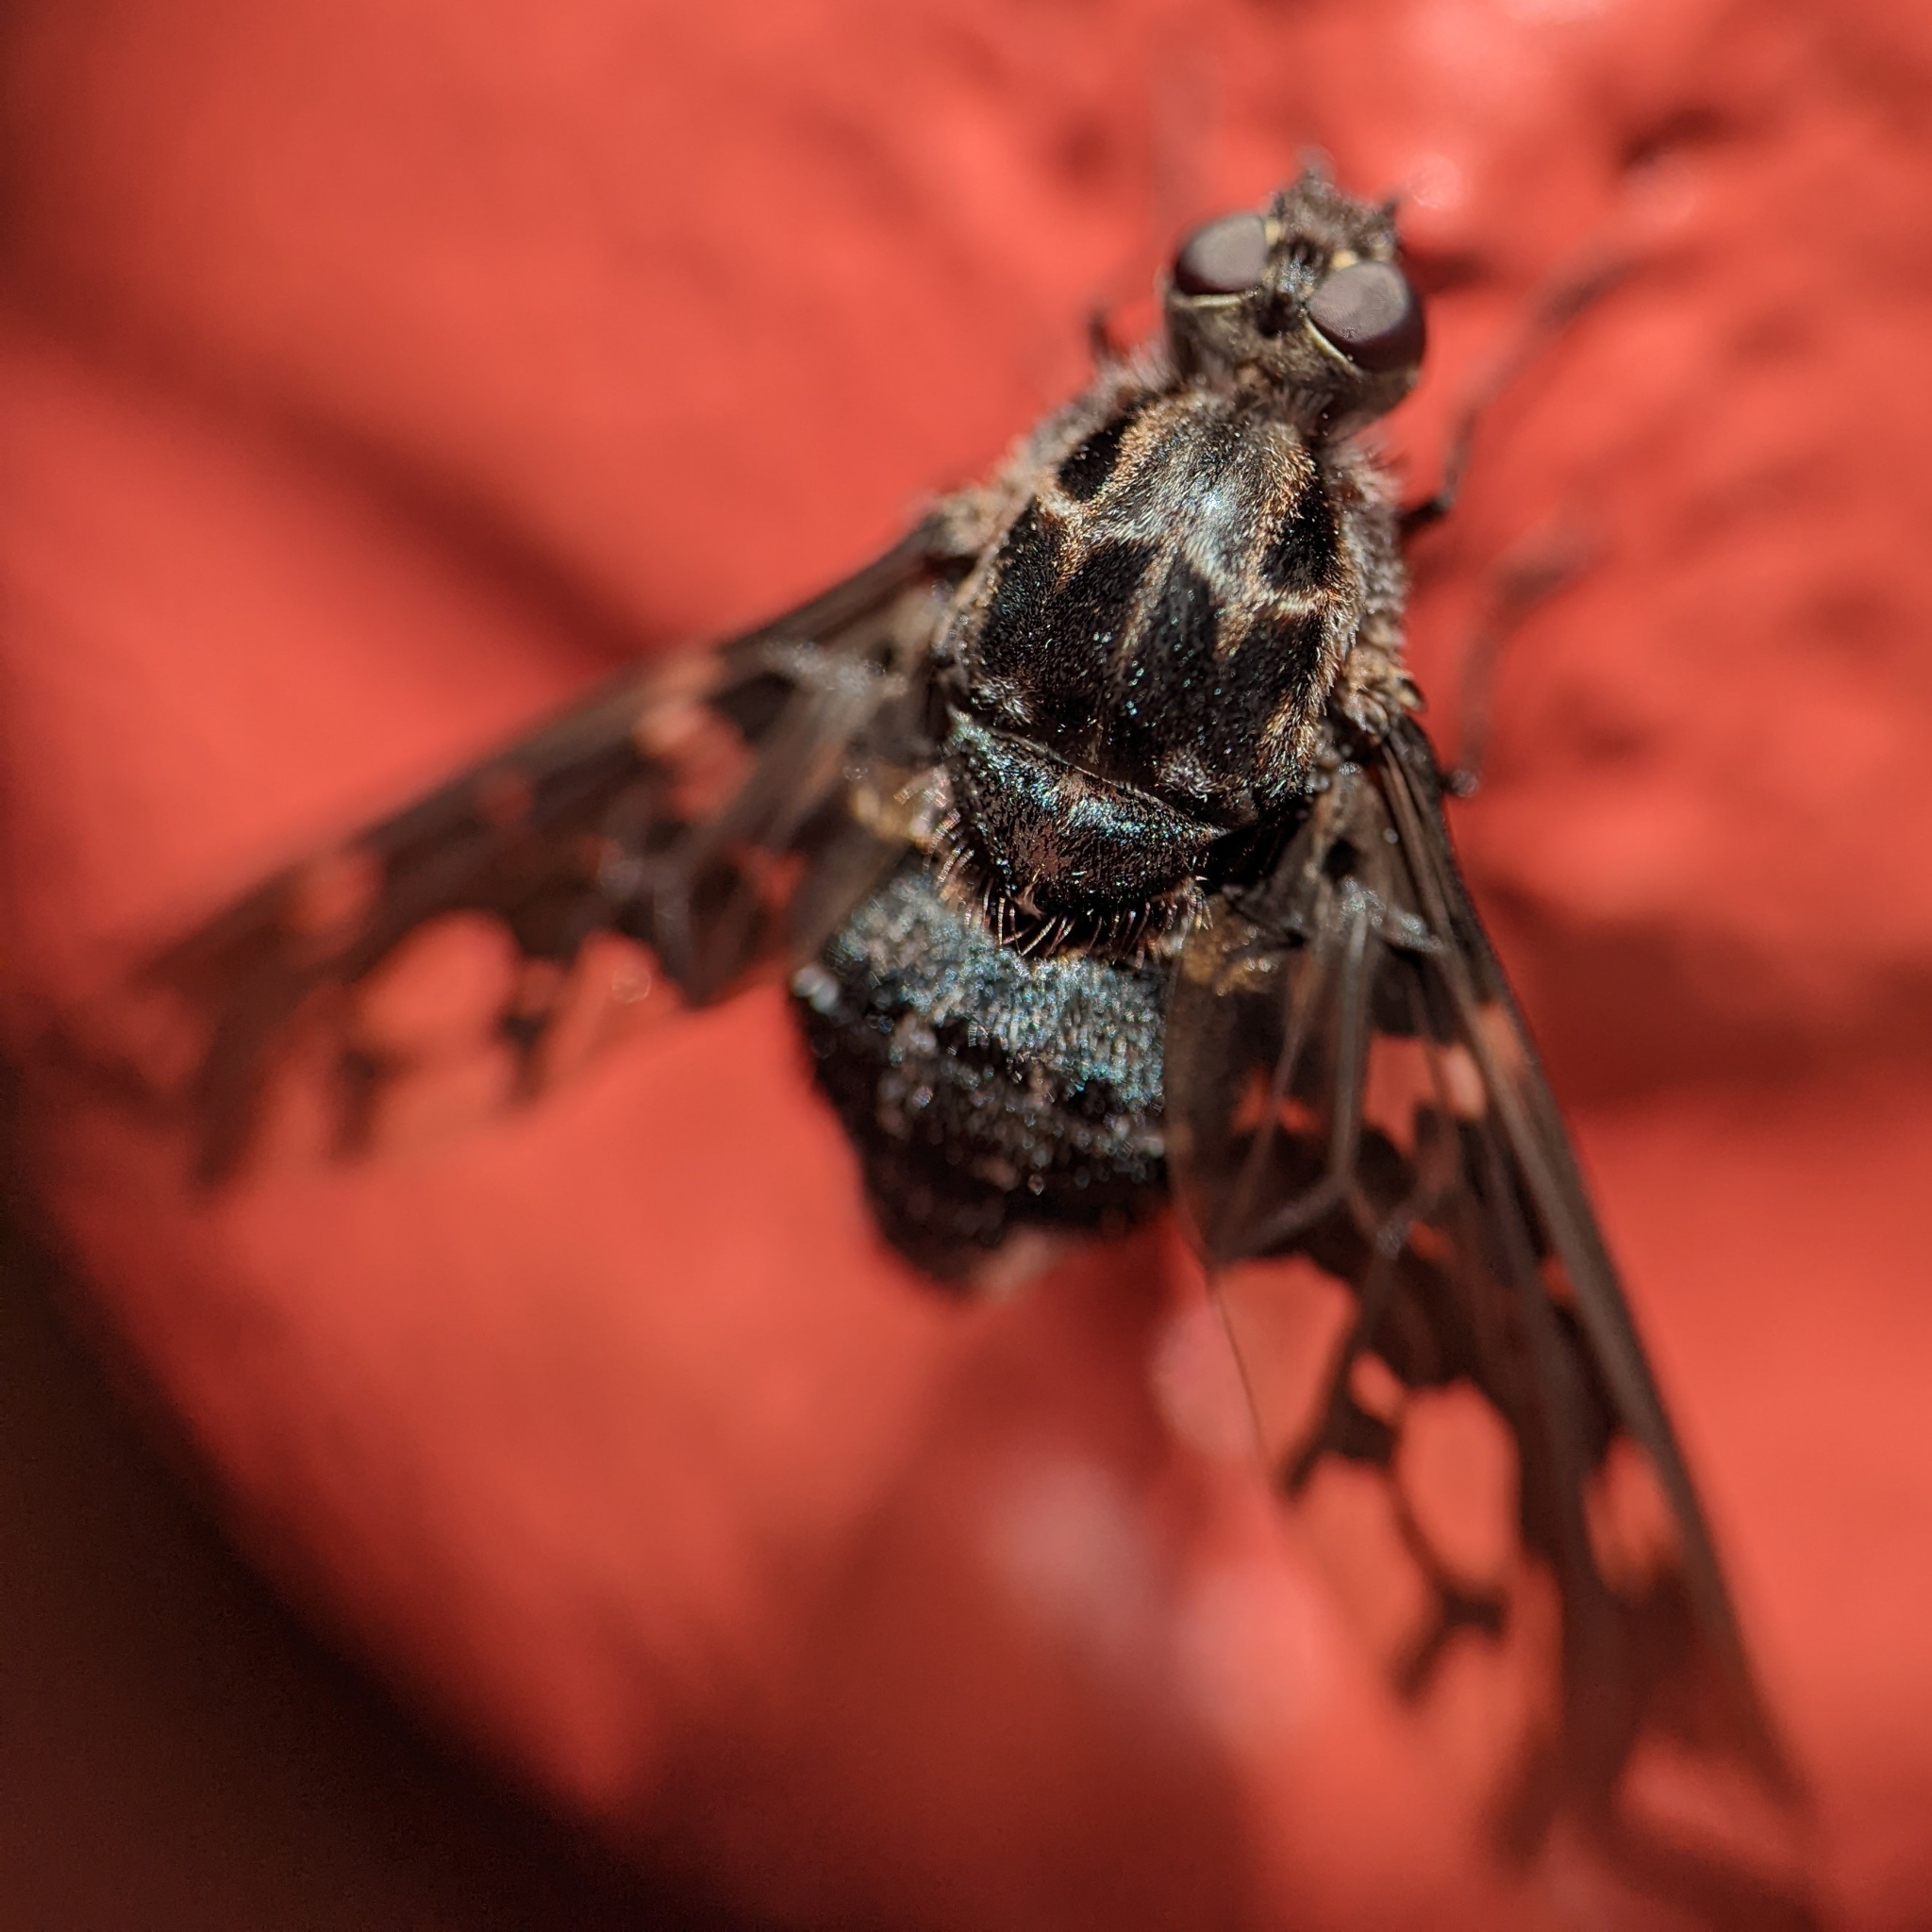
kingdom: Animalia
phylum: Arthropoda
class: Insecta
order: Diptera
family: Bombyliidae
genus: Xenox
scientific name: Xenox tigrinus
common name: Tiger bee fly
